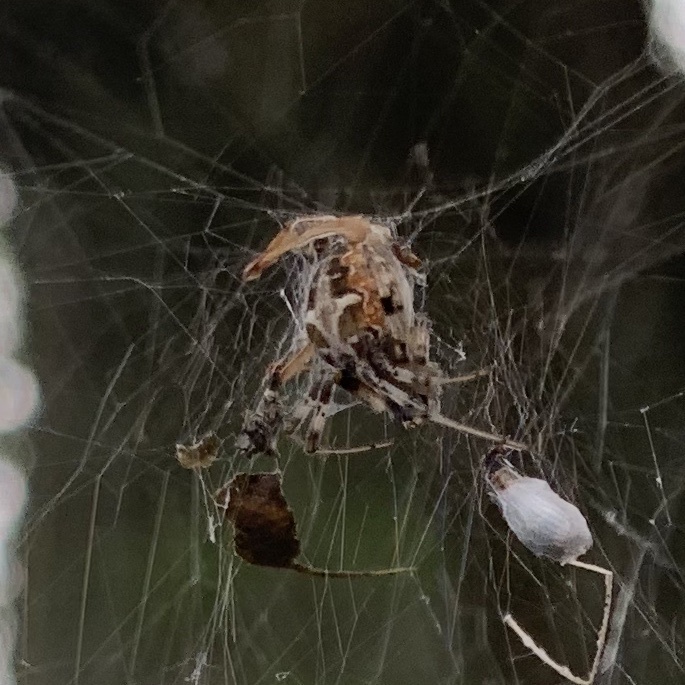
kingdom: Animalia
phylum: Arthropoda
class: Arachnida
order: Araneae
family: Araneidae
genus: Metepeira
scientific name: Metepeira labyrinthea
